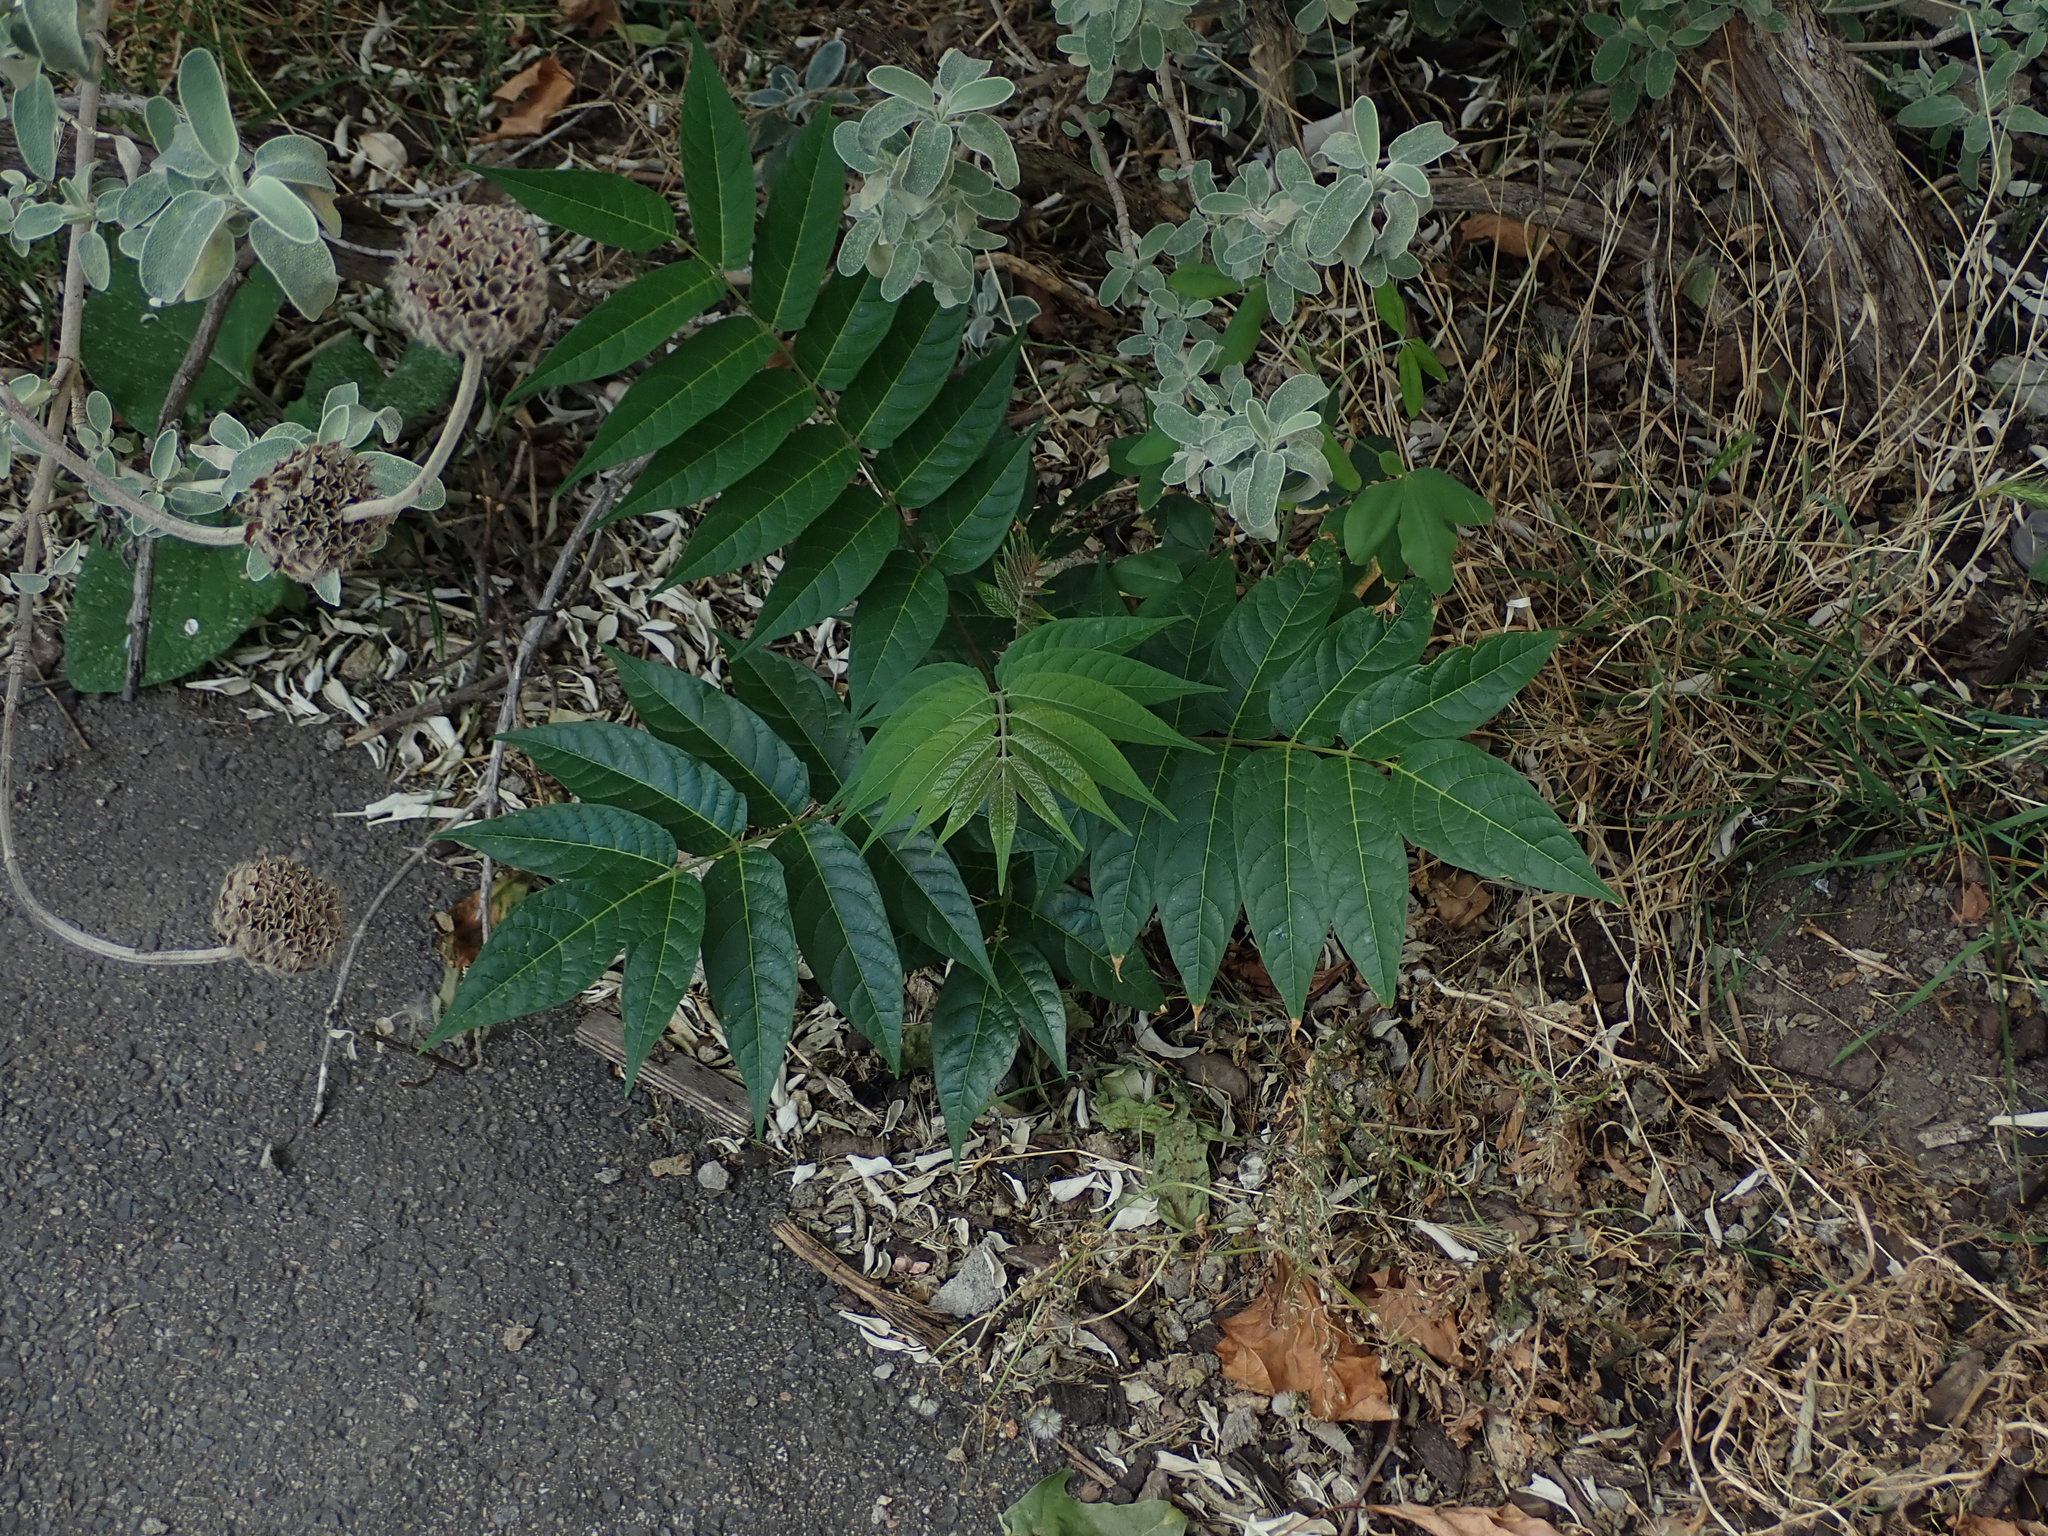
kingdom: Plantae
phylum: Tracheophyta
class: Magnoliopsida
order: Sapindales
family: Simaroubaceae
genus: Ailanthus
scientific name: Ailanthus altissima
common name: Tree-of-heaven
